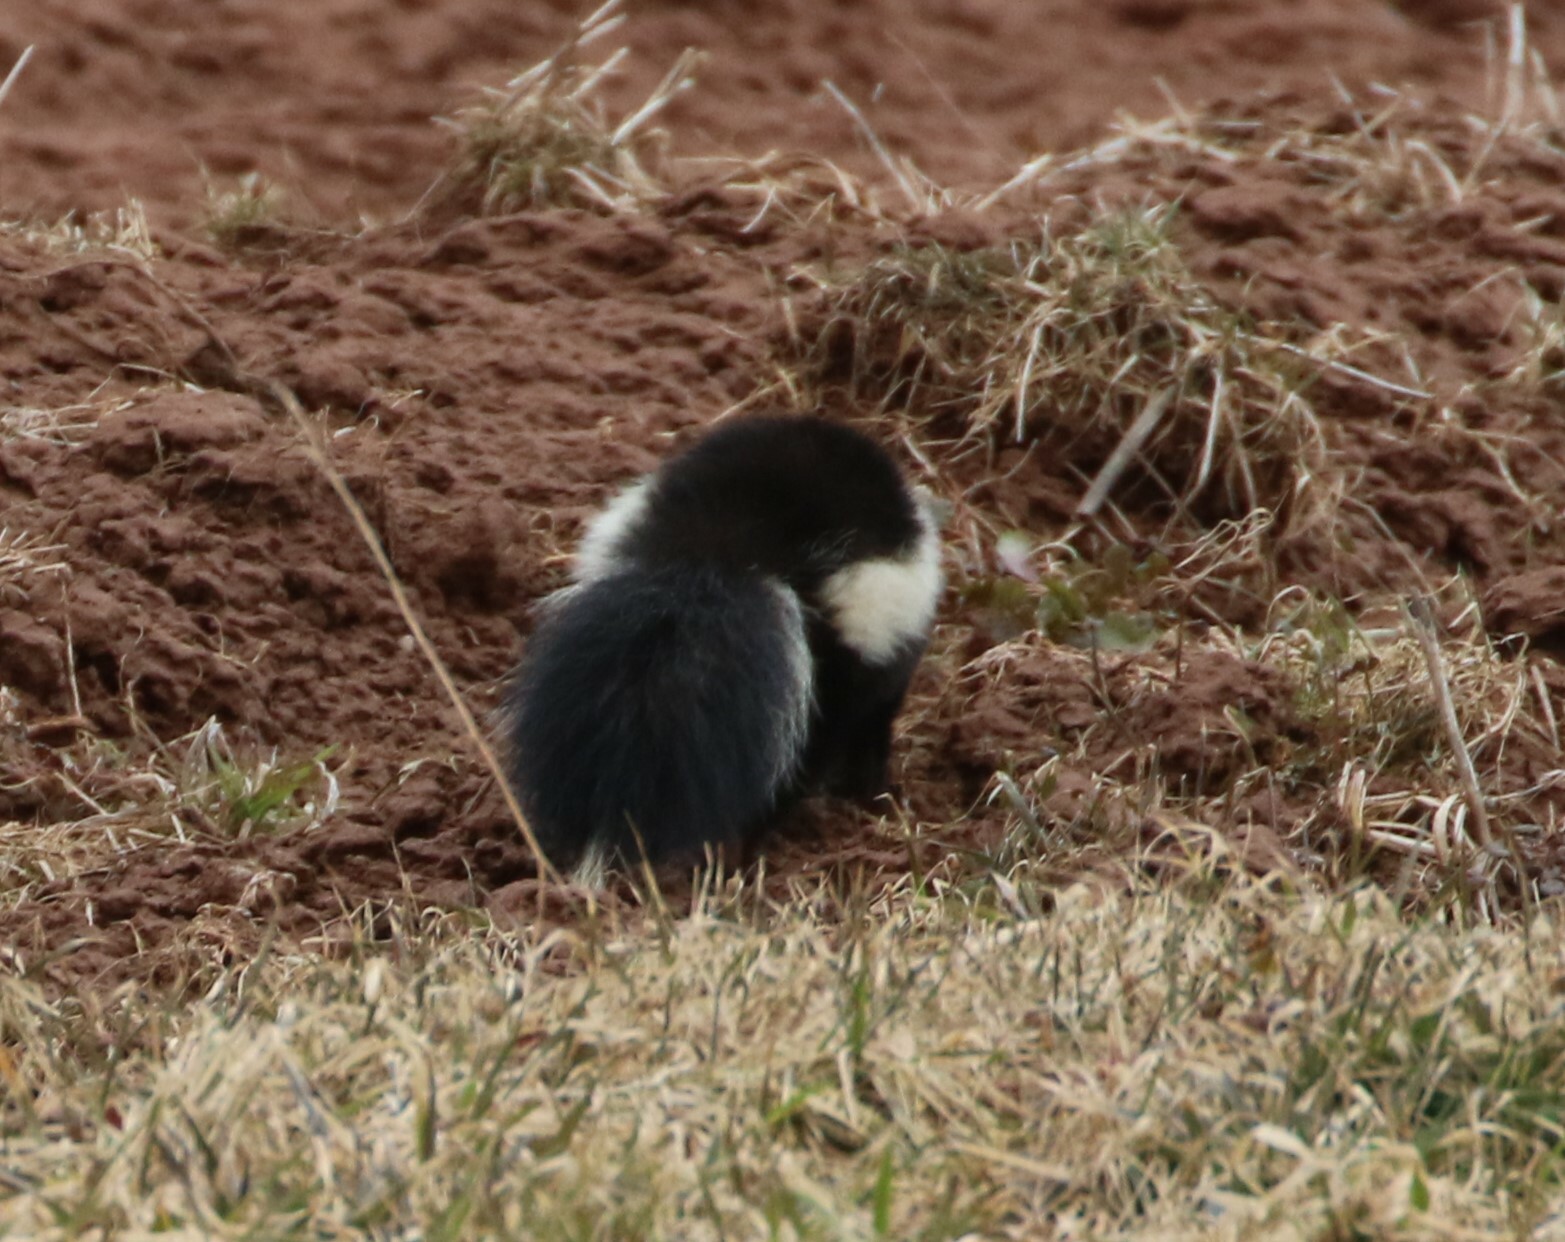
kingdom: Animalia
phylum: Chordata
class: Mammalia
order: Carnivora
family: Mephitidae
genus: Mephitis
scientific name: Mephitis mephitis
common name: Striped skunk
